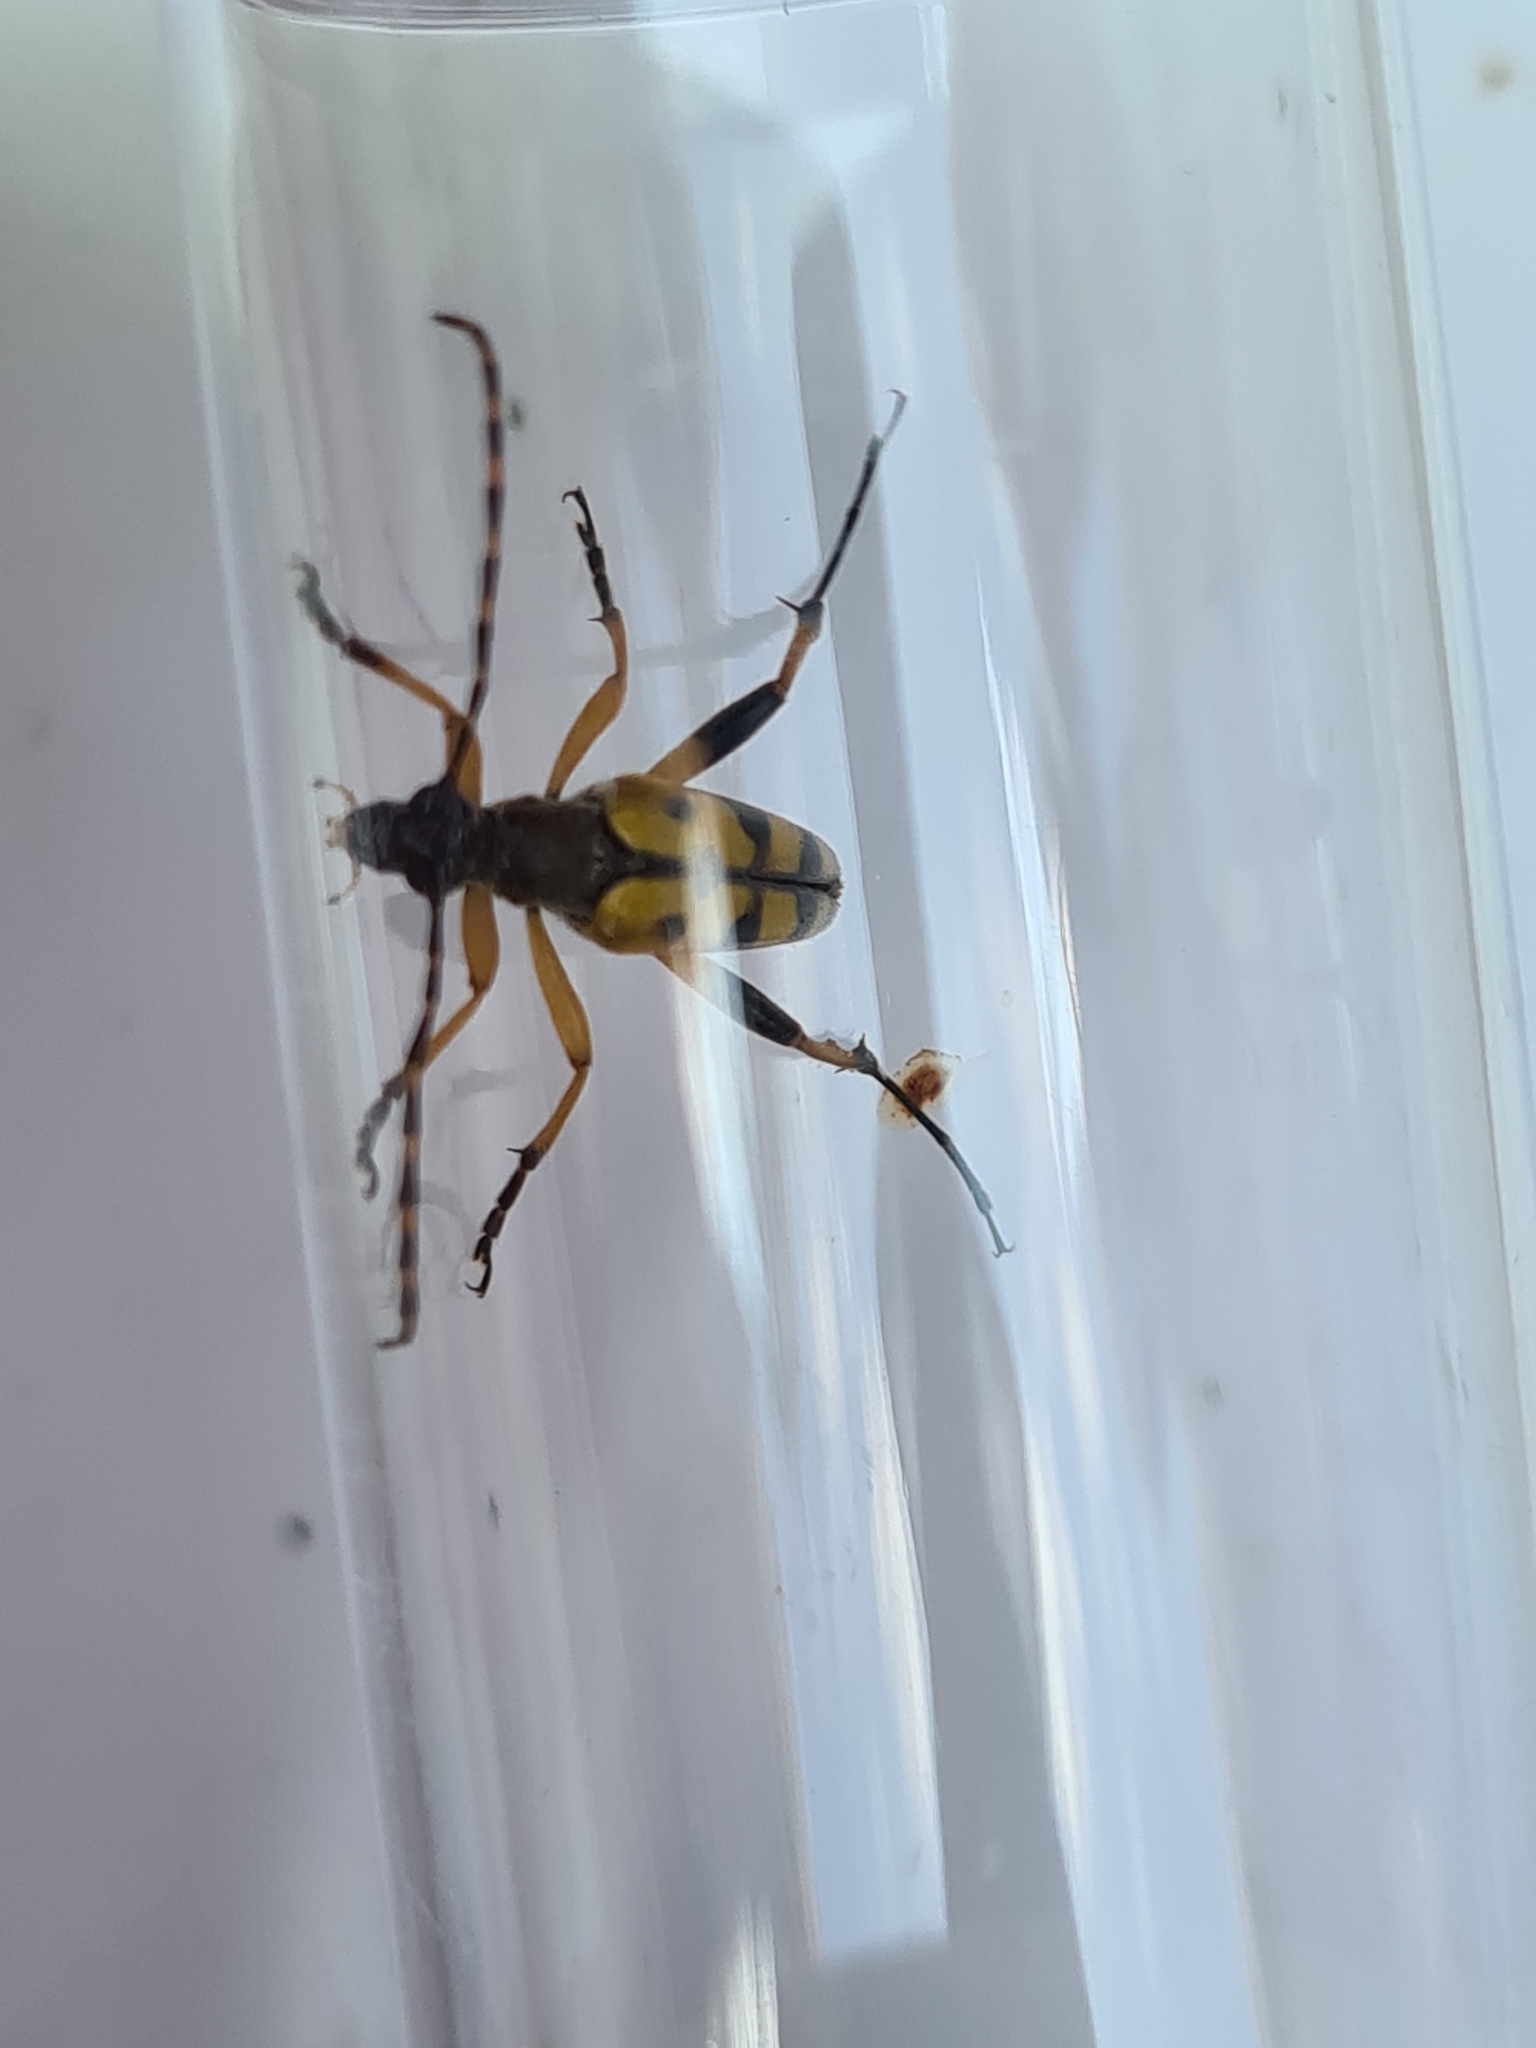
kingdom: Animalia
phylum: Arthropoda
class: Insecta
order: Coleoptera
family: Cerambycidae
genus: Rutpela
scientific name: Rutpela maculata
